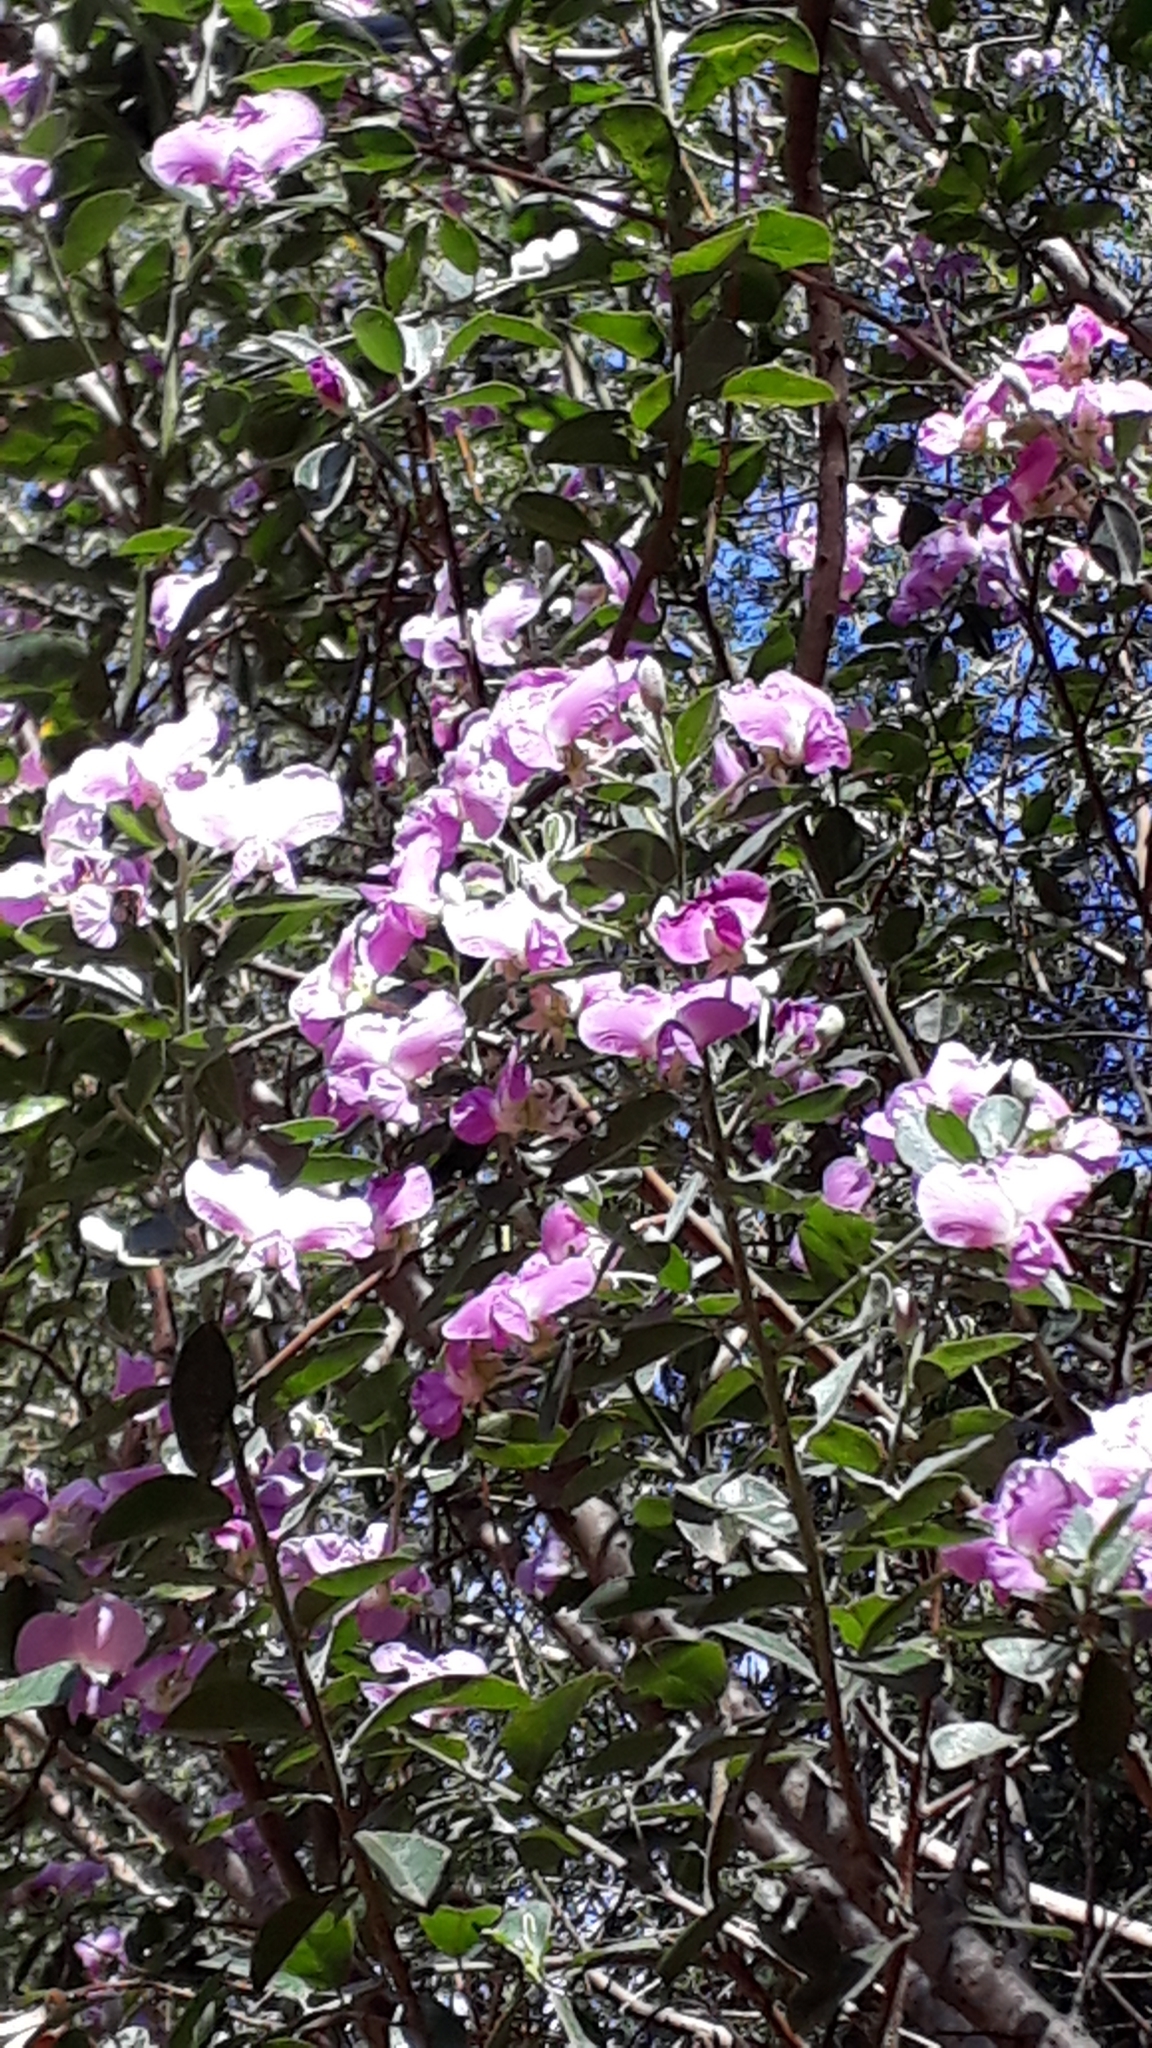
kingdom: Plantae
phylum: Tracheophyta
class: Magnoliopsida
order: Fabales
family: Fabaceae
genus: Podalyria
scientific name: Podalyria calyptrata
